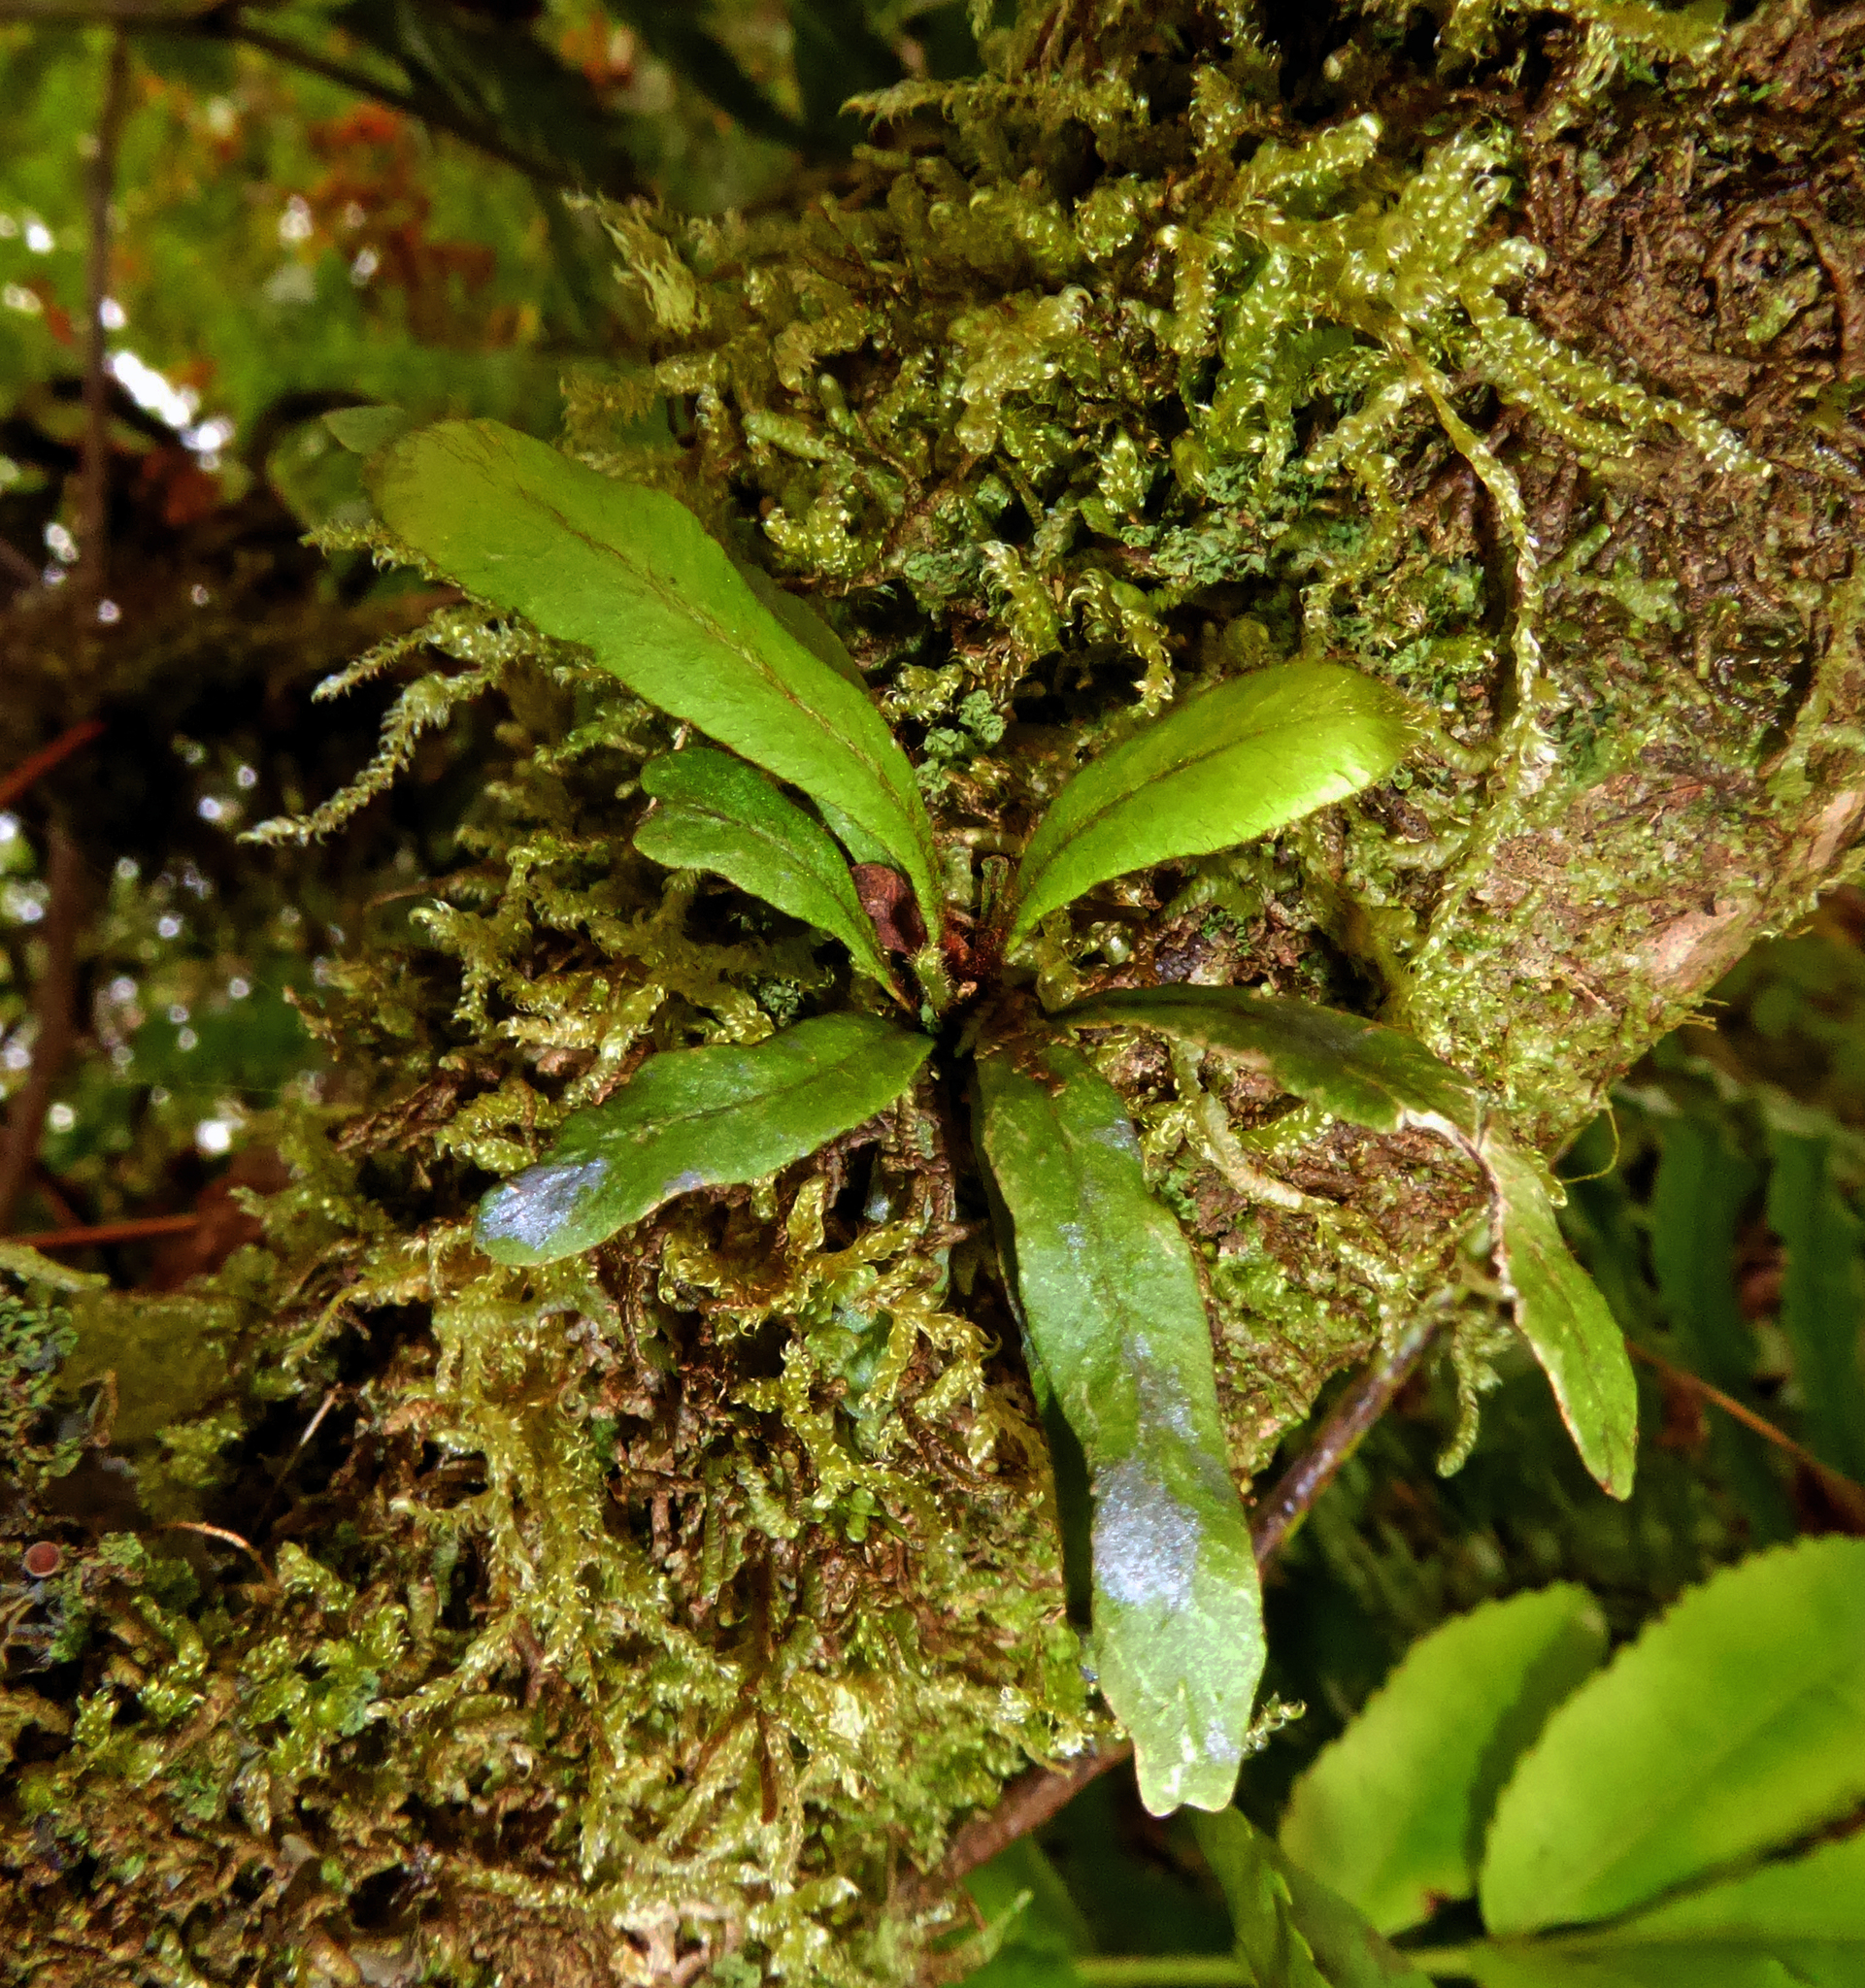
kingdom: Plantae
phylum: Tracheophyta
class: Polypodiopsida
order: Polypodiales
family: Polypodiaceae
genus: Oreogrammitis
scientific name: Oreogrammitis cheesemanii
